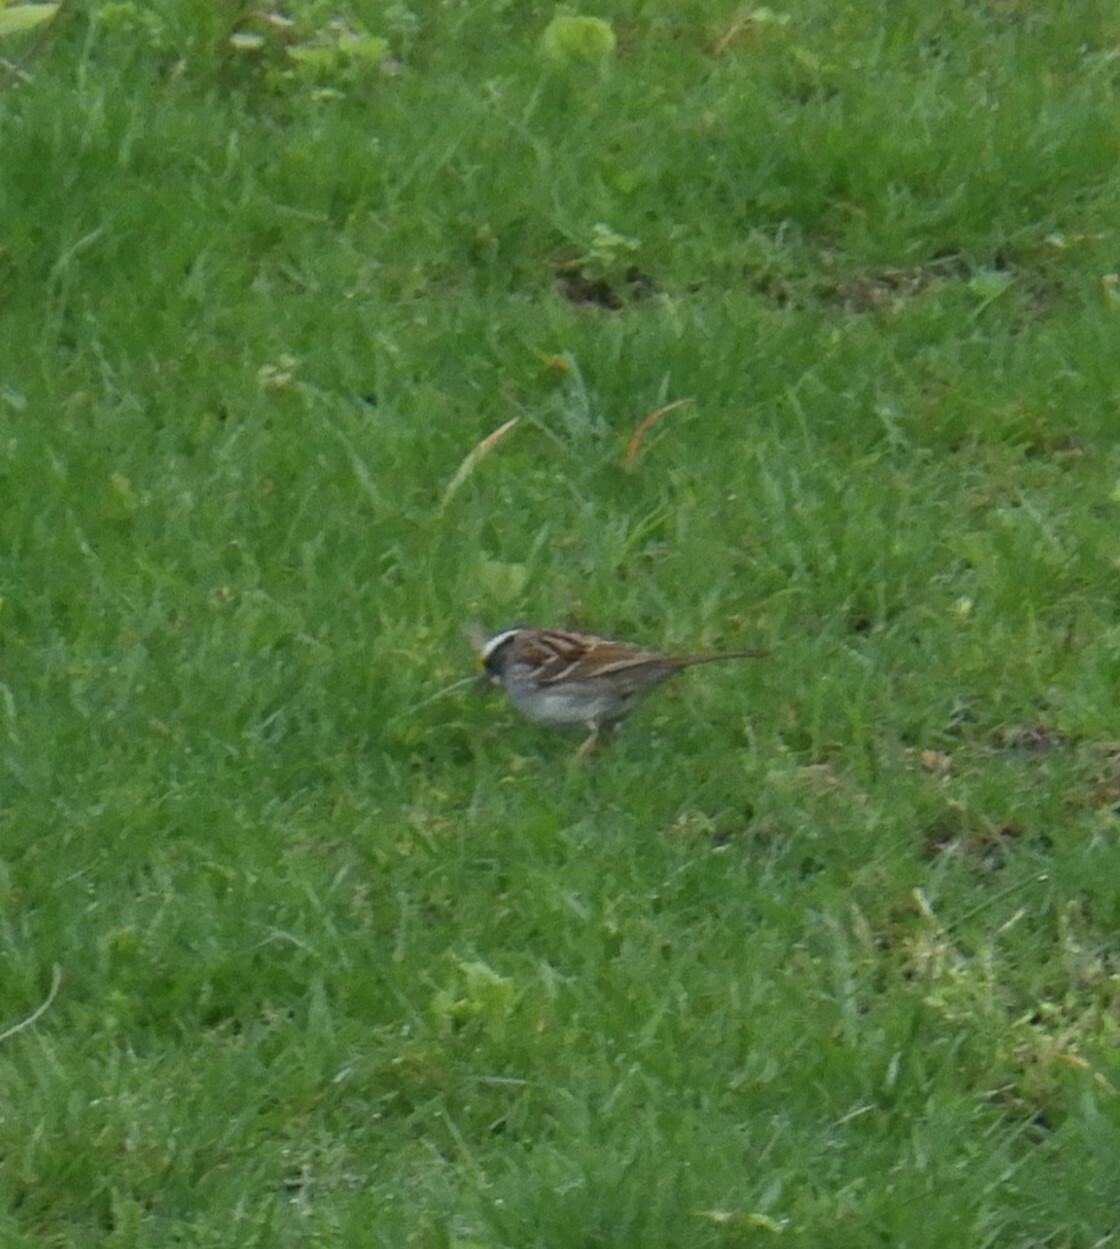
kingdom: Animalia
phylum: Chordata
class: Aves
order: Passeriformes
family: Passerellidae
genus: Zonotrichia
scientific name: Zonotrichia albicollis
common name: White-throated sparrow
